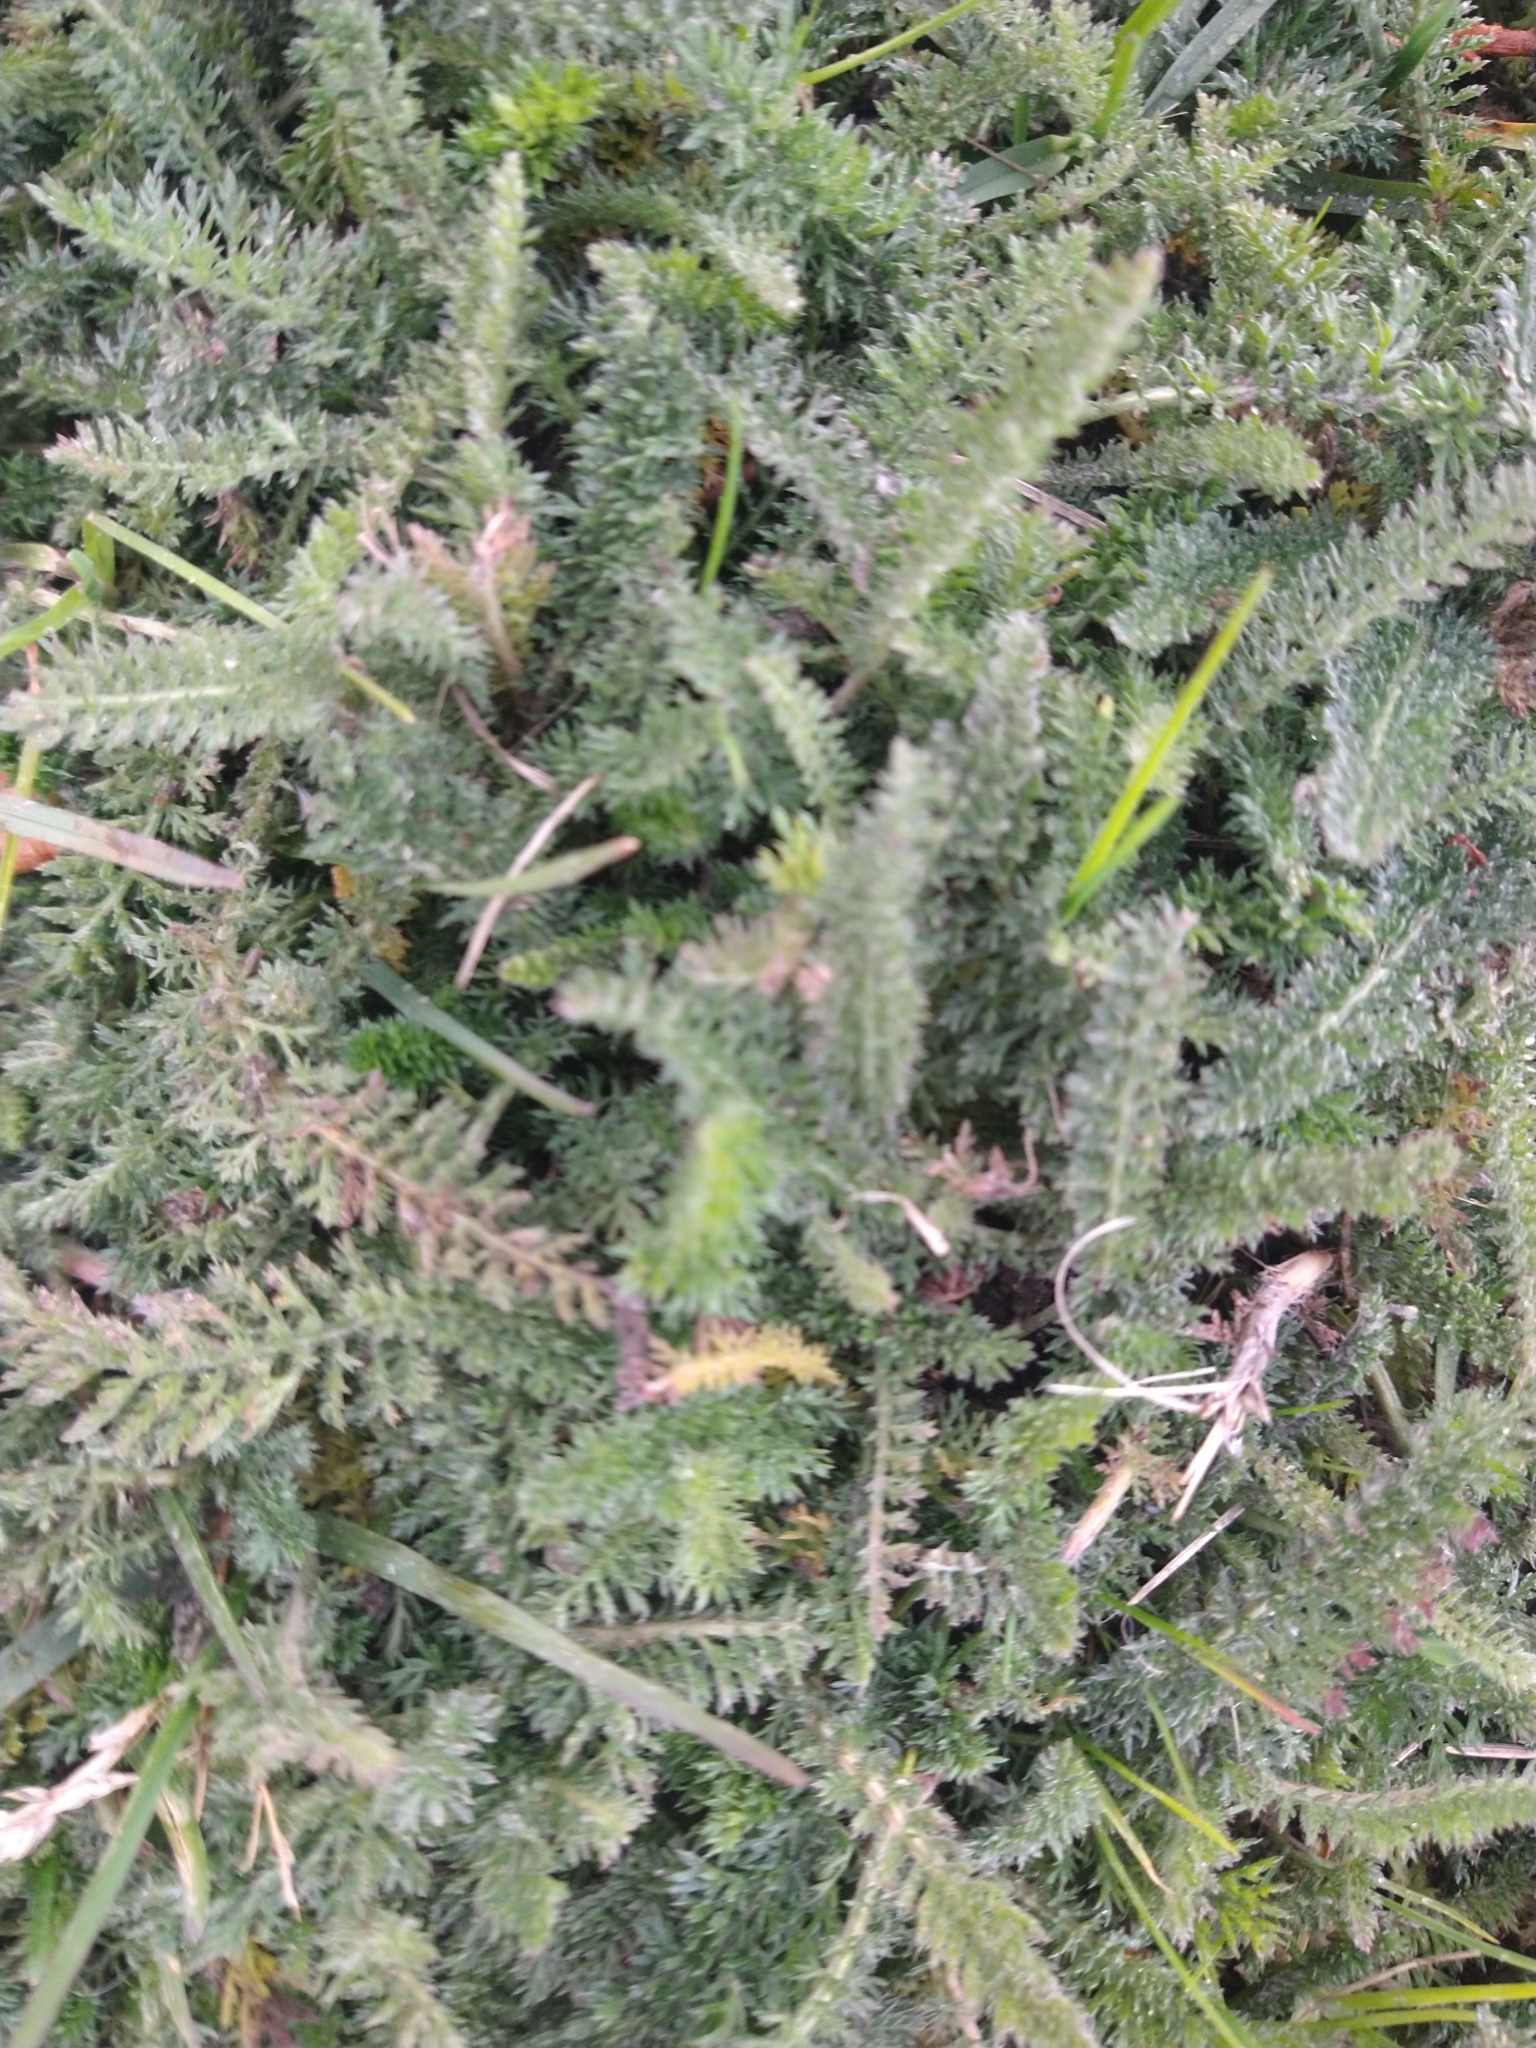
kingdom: Plantae
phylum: Tracheophyta
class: Magnoliopsida
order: Asterales
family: Asteraceae
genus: Achillea
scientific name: Achillea millefolium
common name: Yarrow
